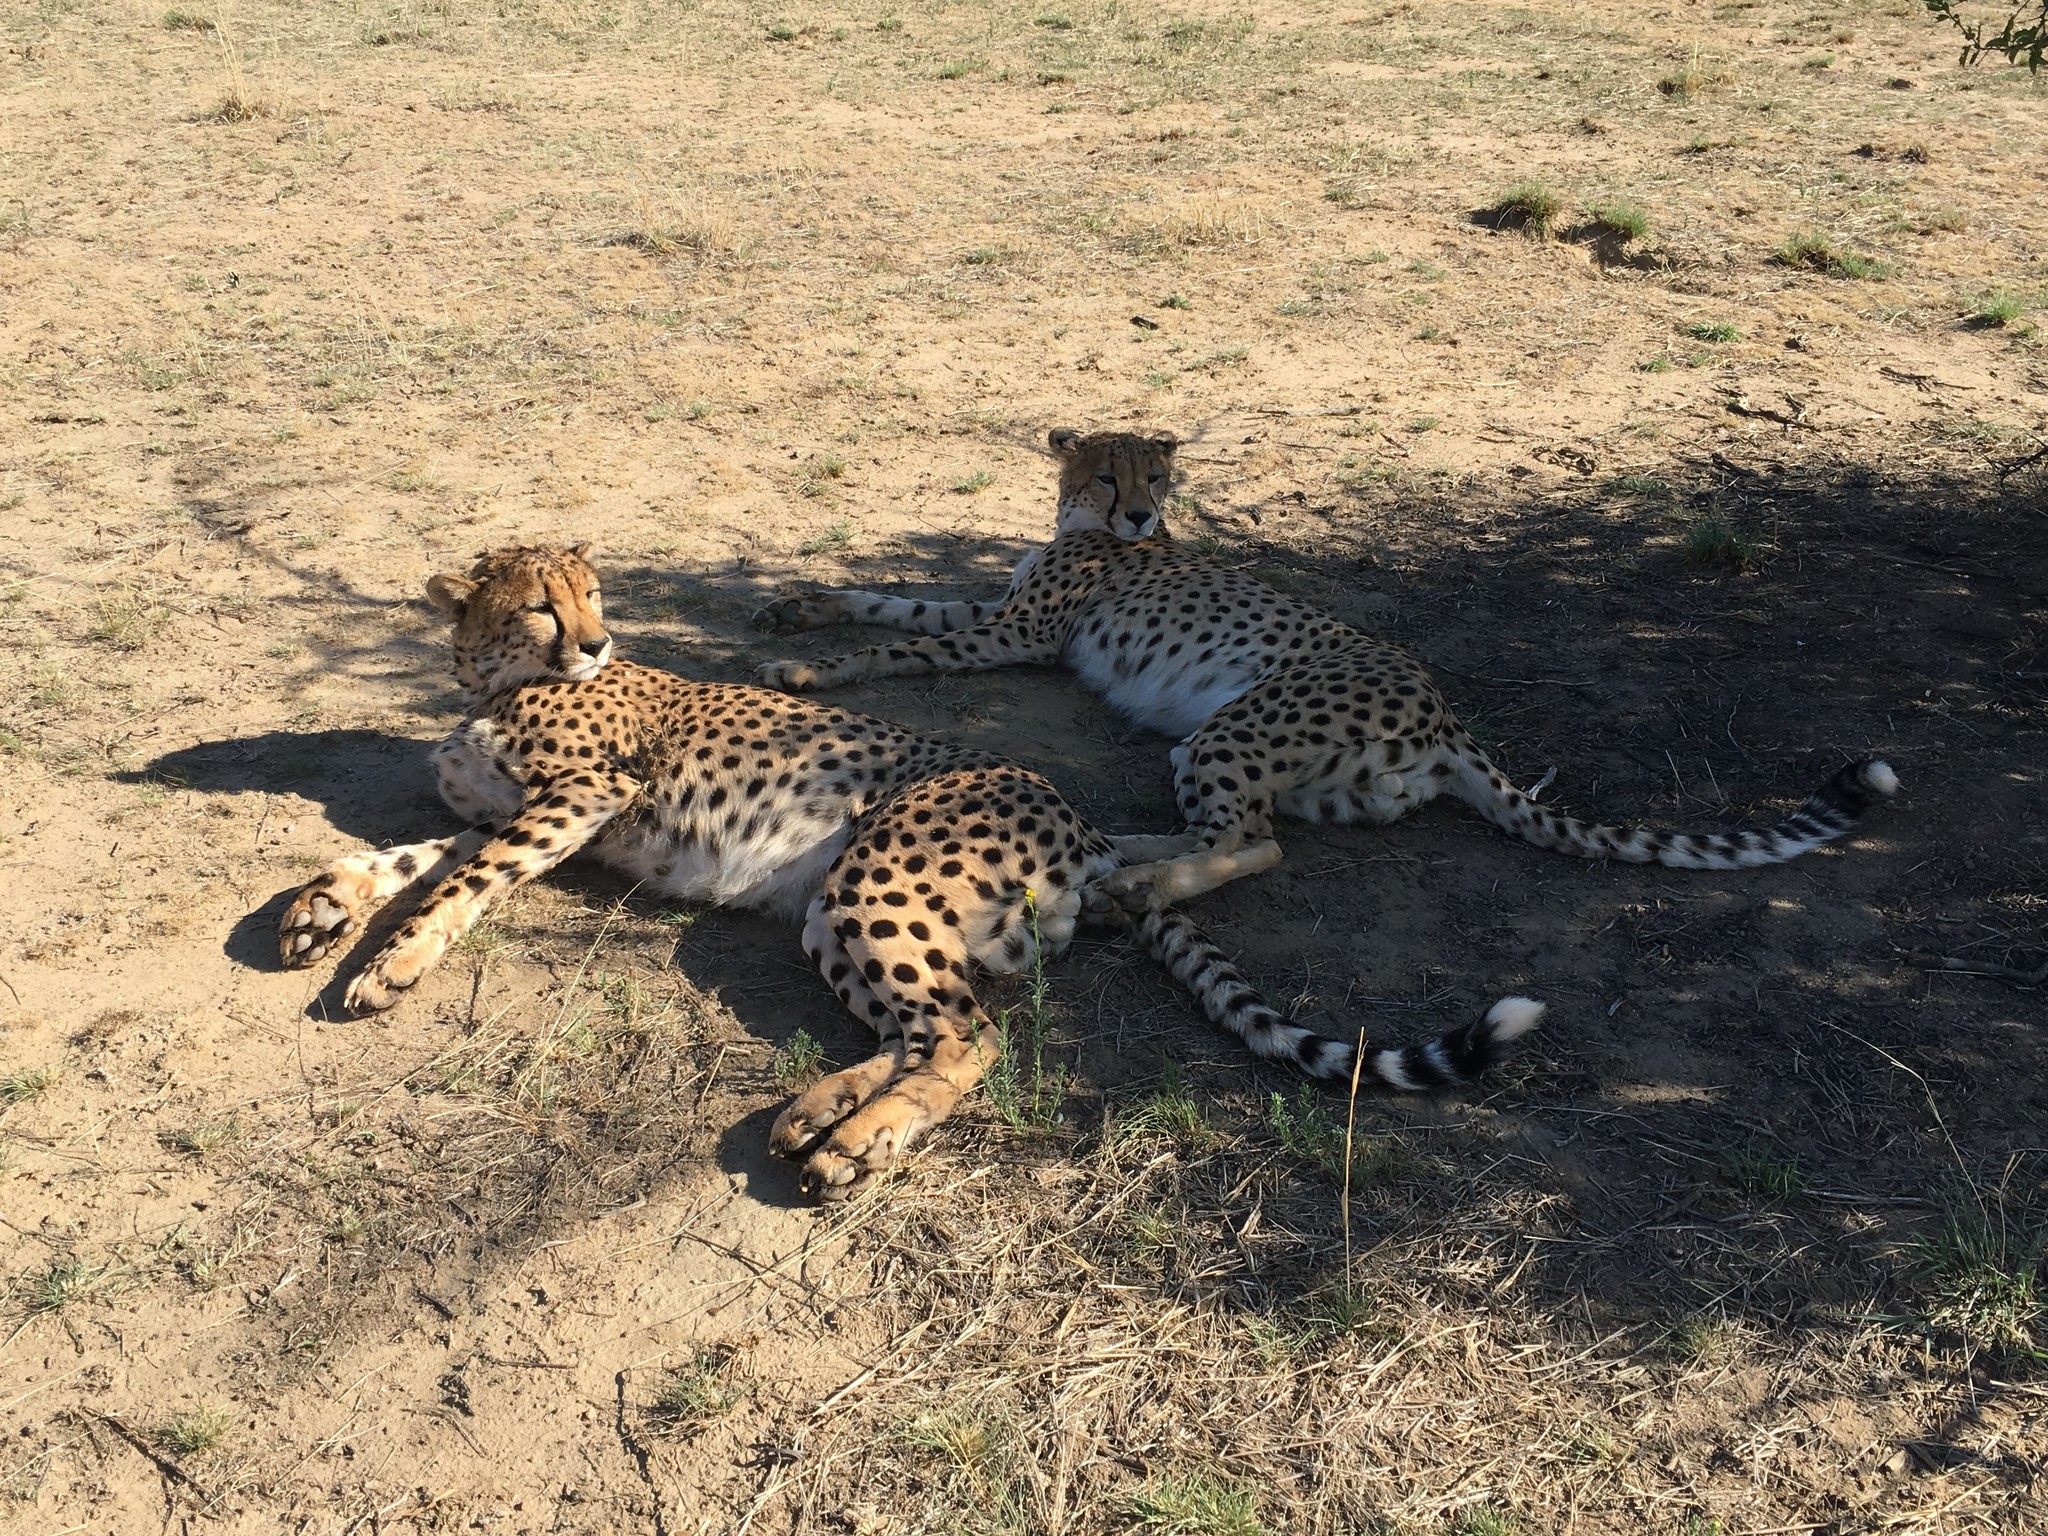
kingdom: Animalia
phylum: Chordata
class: Mammalia
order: Carnivora
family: Felidae
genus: Acinonyx
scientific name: Acinonyx jubatus
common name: Cheetah
